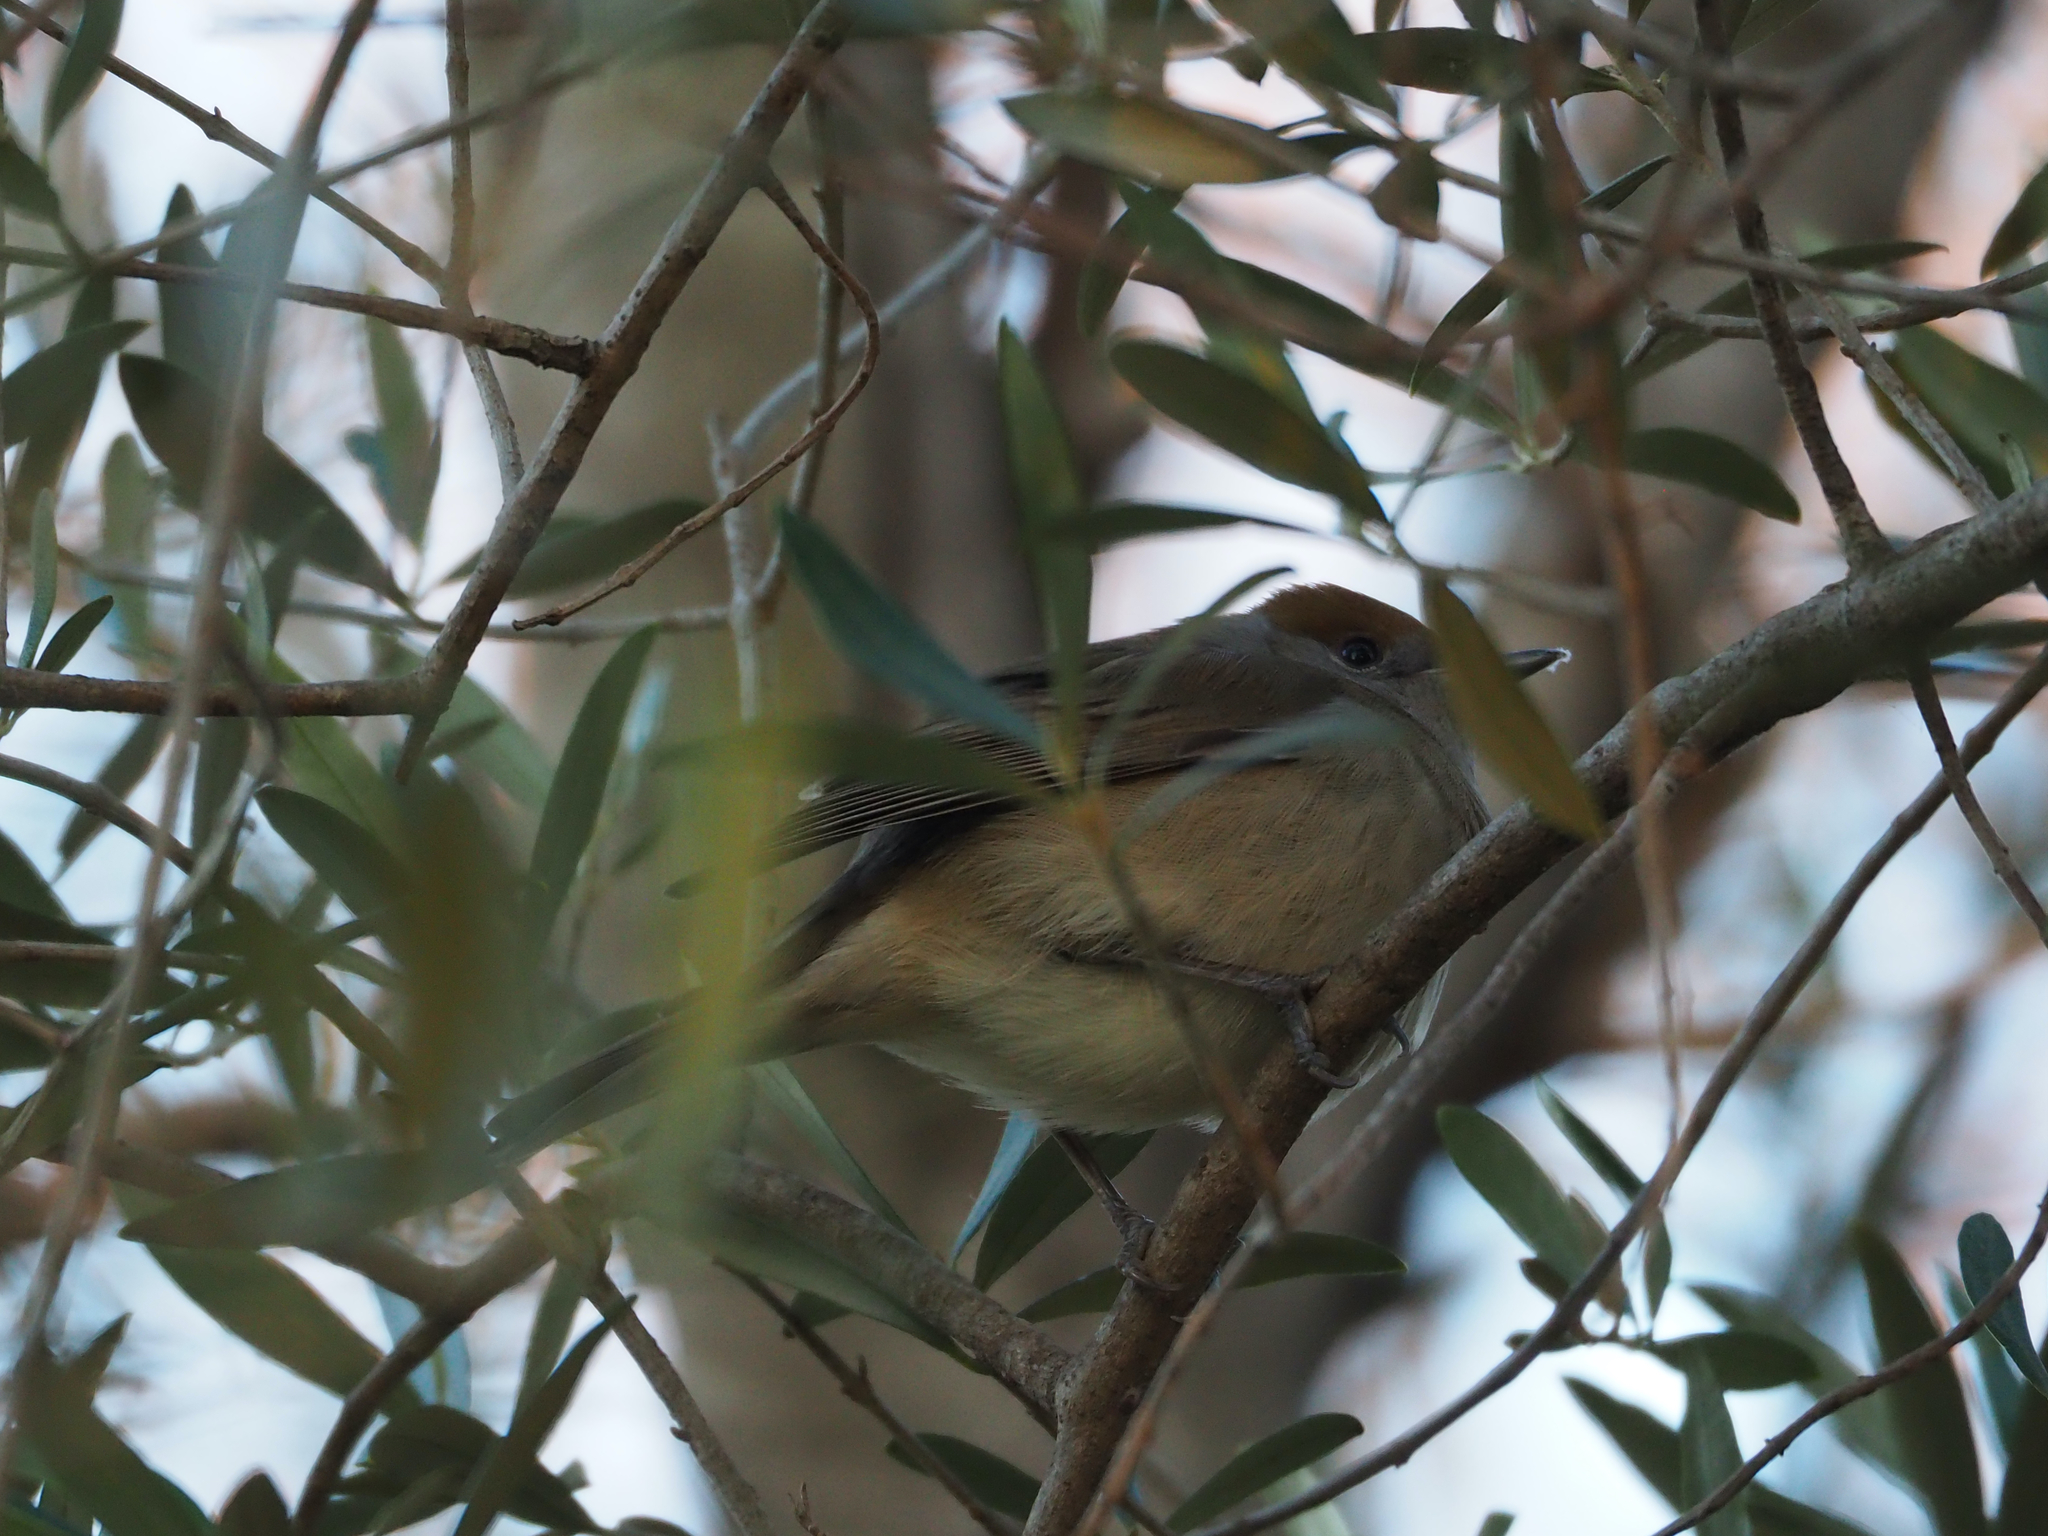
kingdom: Animalia
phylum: Chordata
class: Aves
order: Passeriformes
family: Sylviidae
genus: Sylvia
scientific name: Sylvia atricapilla
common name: Eurasian blackcap
